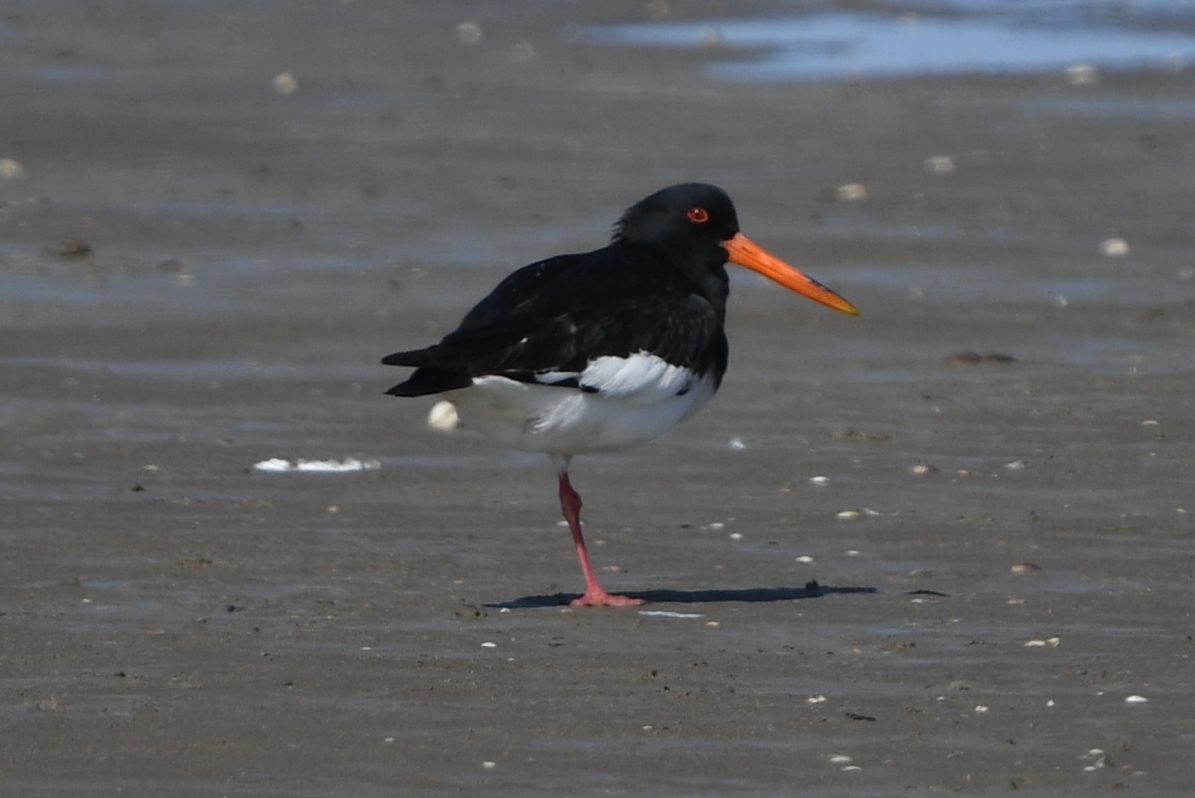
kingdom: Animalia
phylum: Chordata
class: Aves
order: Charadriiformes
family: Haematopodidae
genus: Haematopus
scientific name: Haematopus ostralegus
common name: Eurasian oystercatcher
